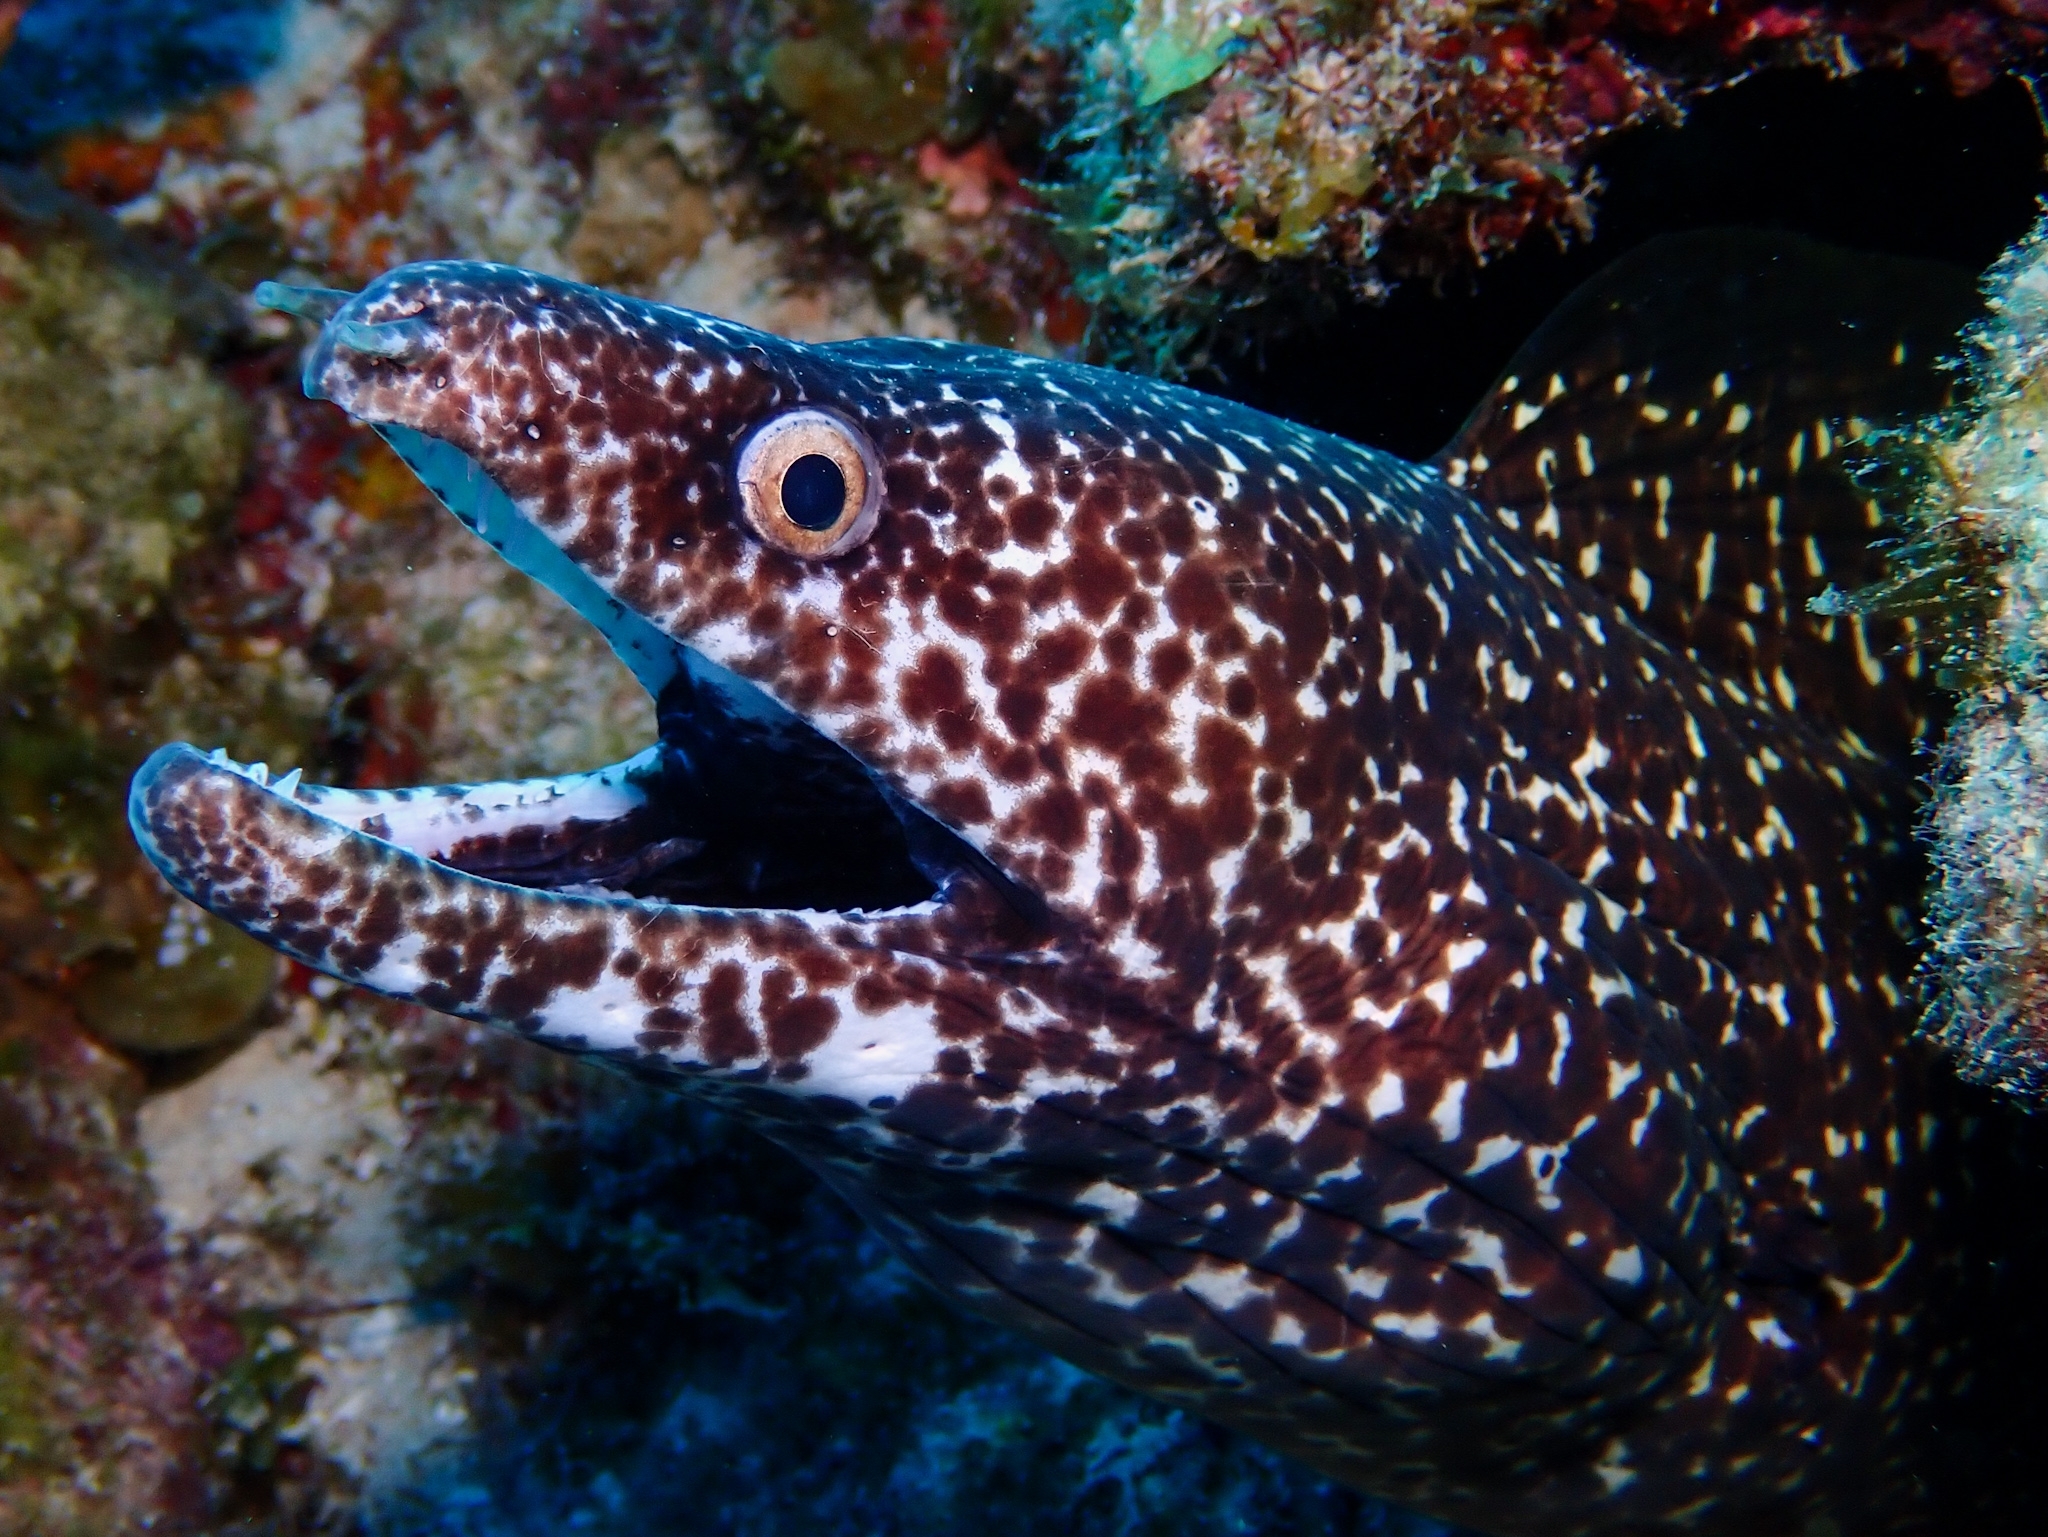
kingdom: Animalia
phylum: Chordata
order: Anguilliformes
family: Muraenidae
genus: Gymnothorax
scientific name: Gymnothorax moringa
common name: Spotted moray
